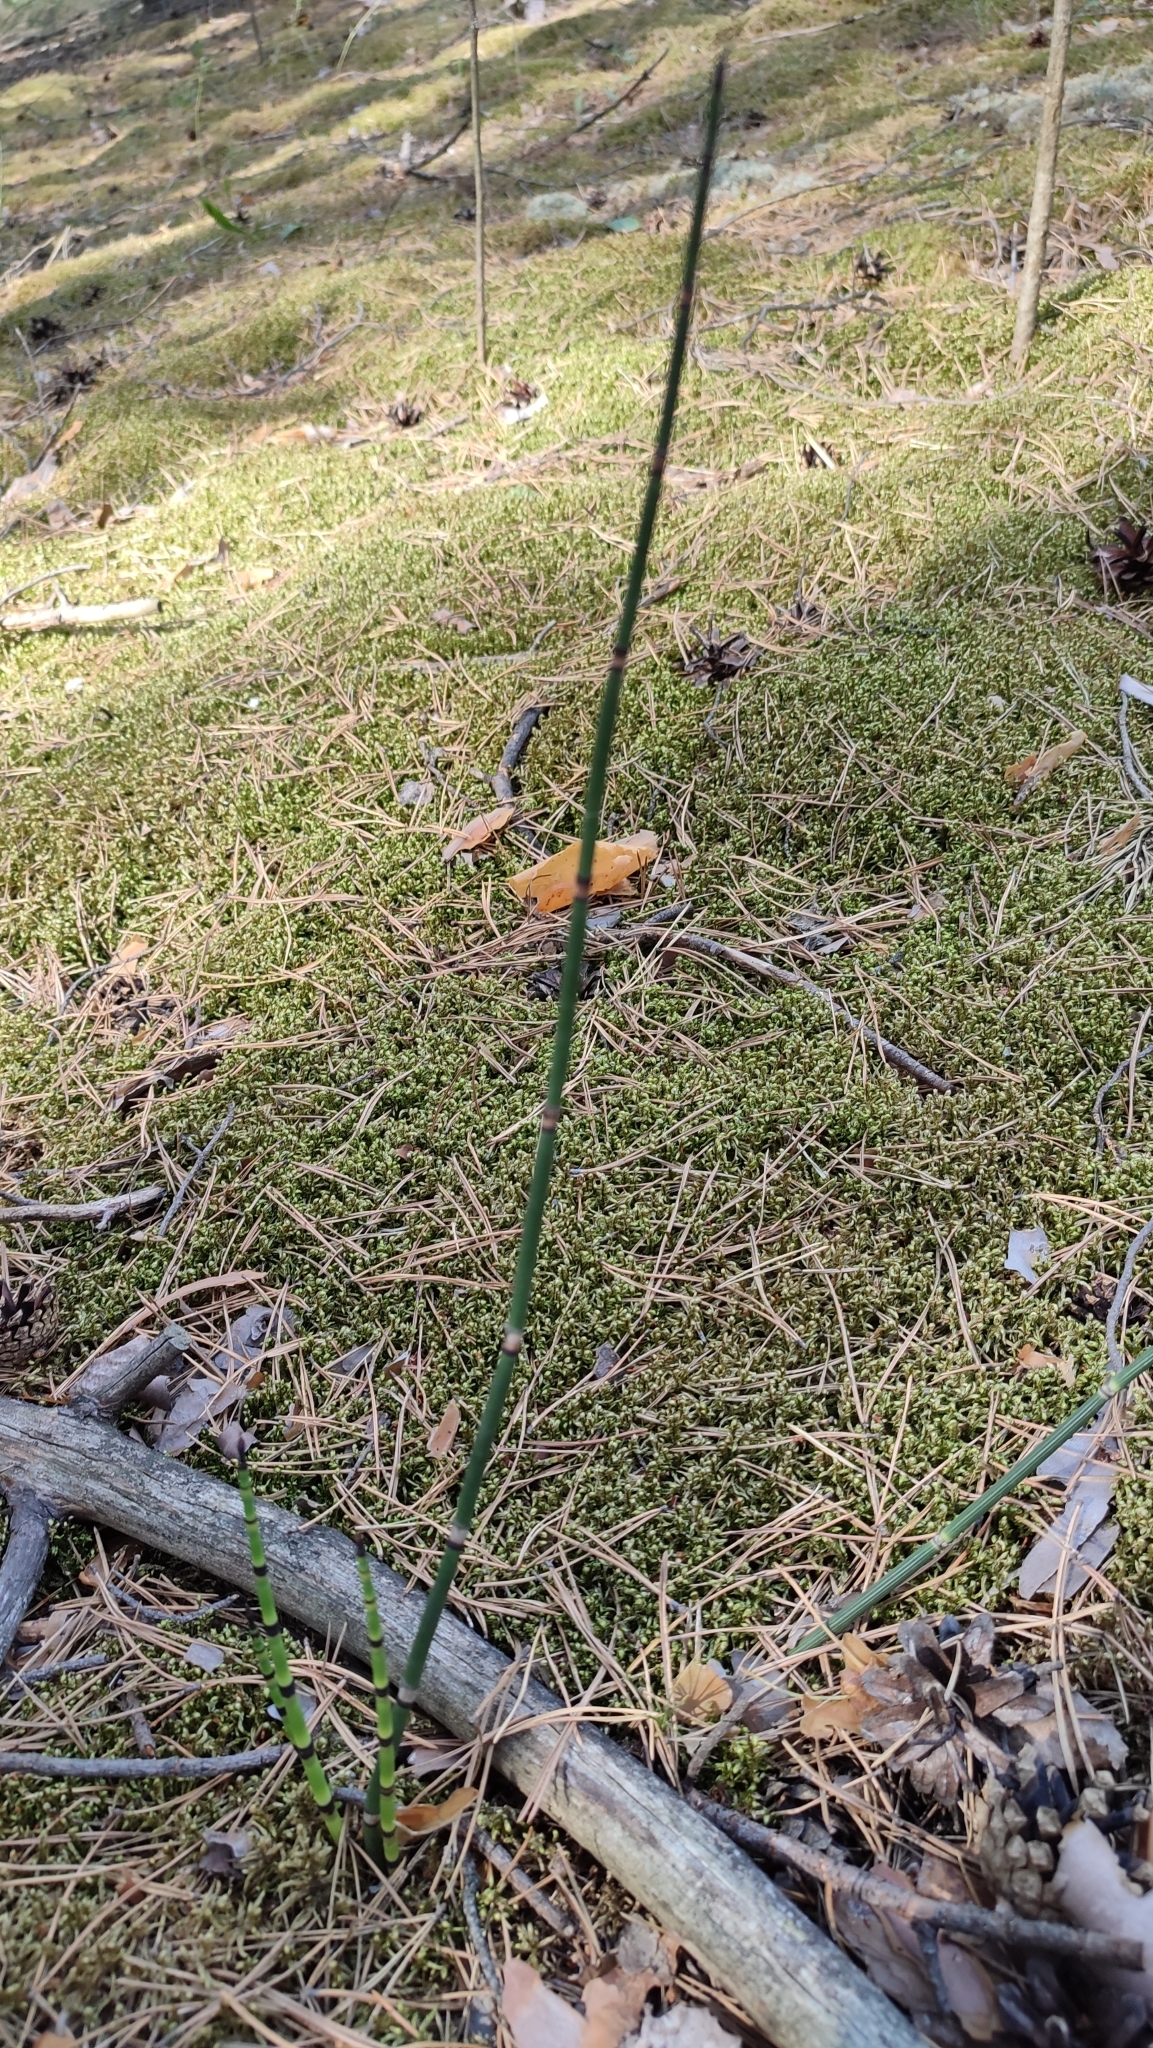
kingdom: Plantae
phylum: Tracheophyta
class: Polypodiopsida
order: Equisetales
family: Equisetaceae
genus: Equisetum
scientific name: Equisetum hyemale
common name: Rough horsetail
